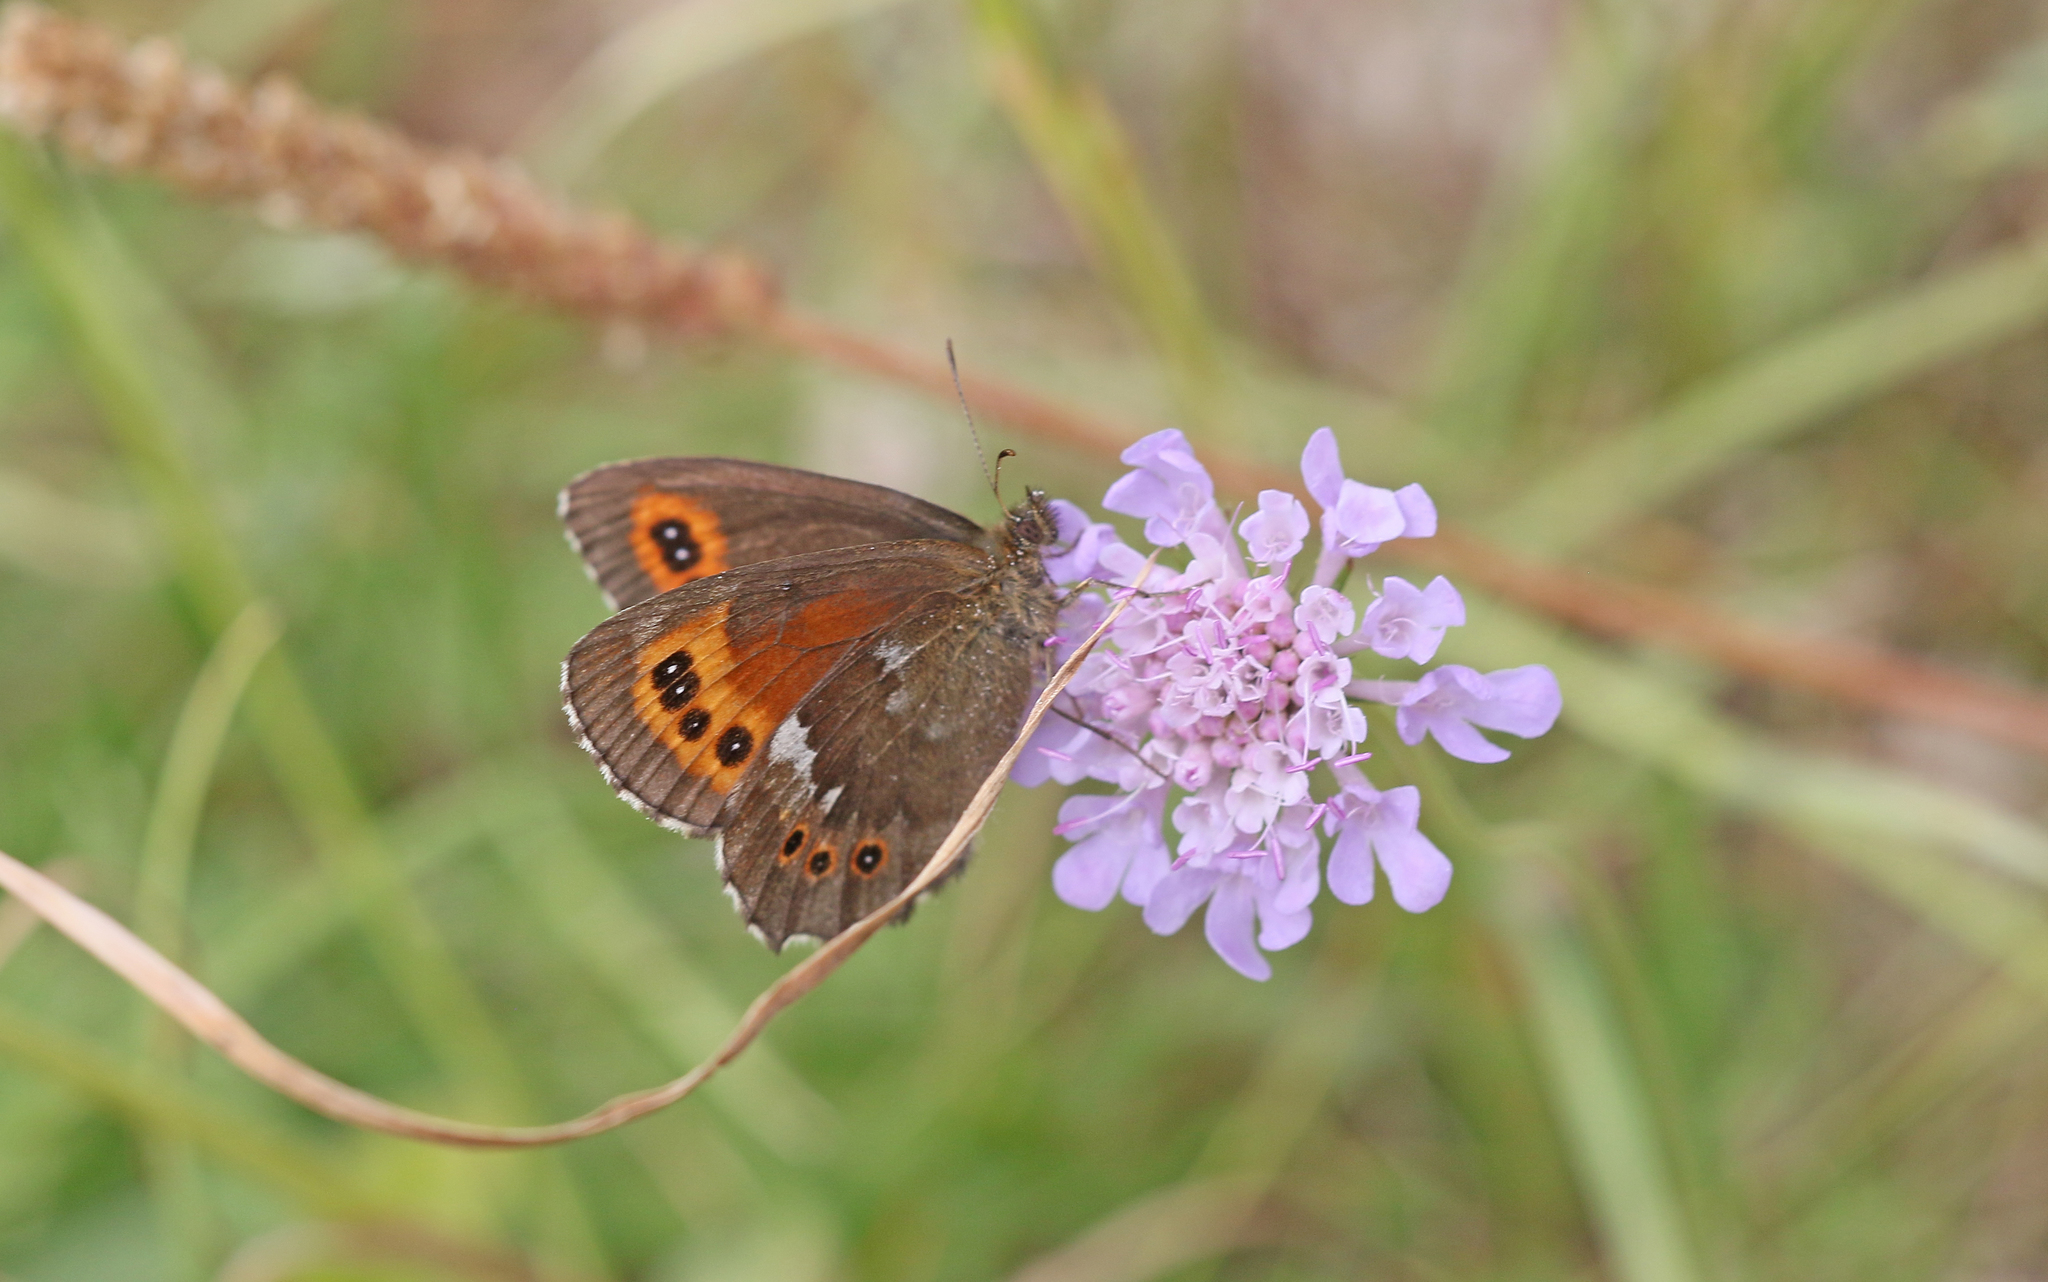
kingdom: Animalia
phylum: Arthropoda
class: Insecta
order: Lepidoptera
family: Nymphalidae
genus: Erebia
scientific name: Erebia ligea
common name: Arran brown
